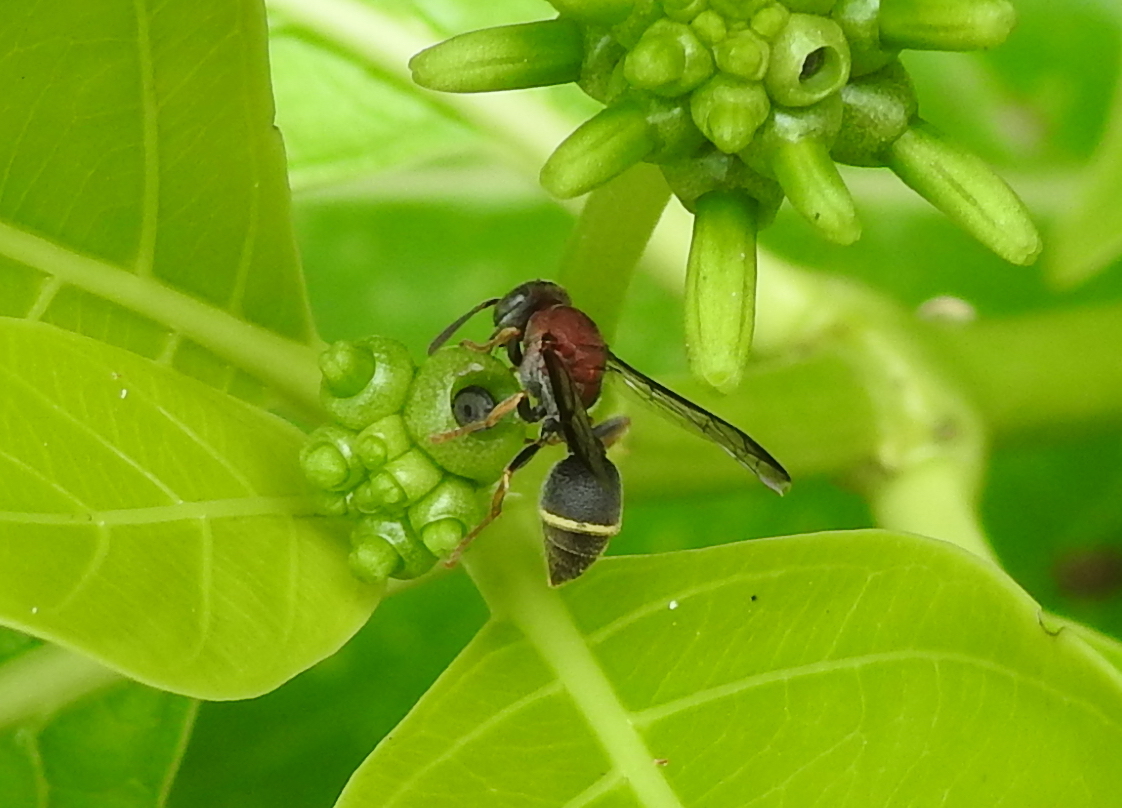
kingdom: Animalia
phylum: Arthropoda
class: Insecta
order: Hymenoptera
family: Vespidae
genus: Ropalidia
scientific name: Ropalidia erythrospila
